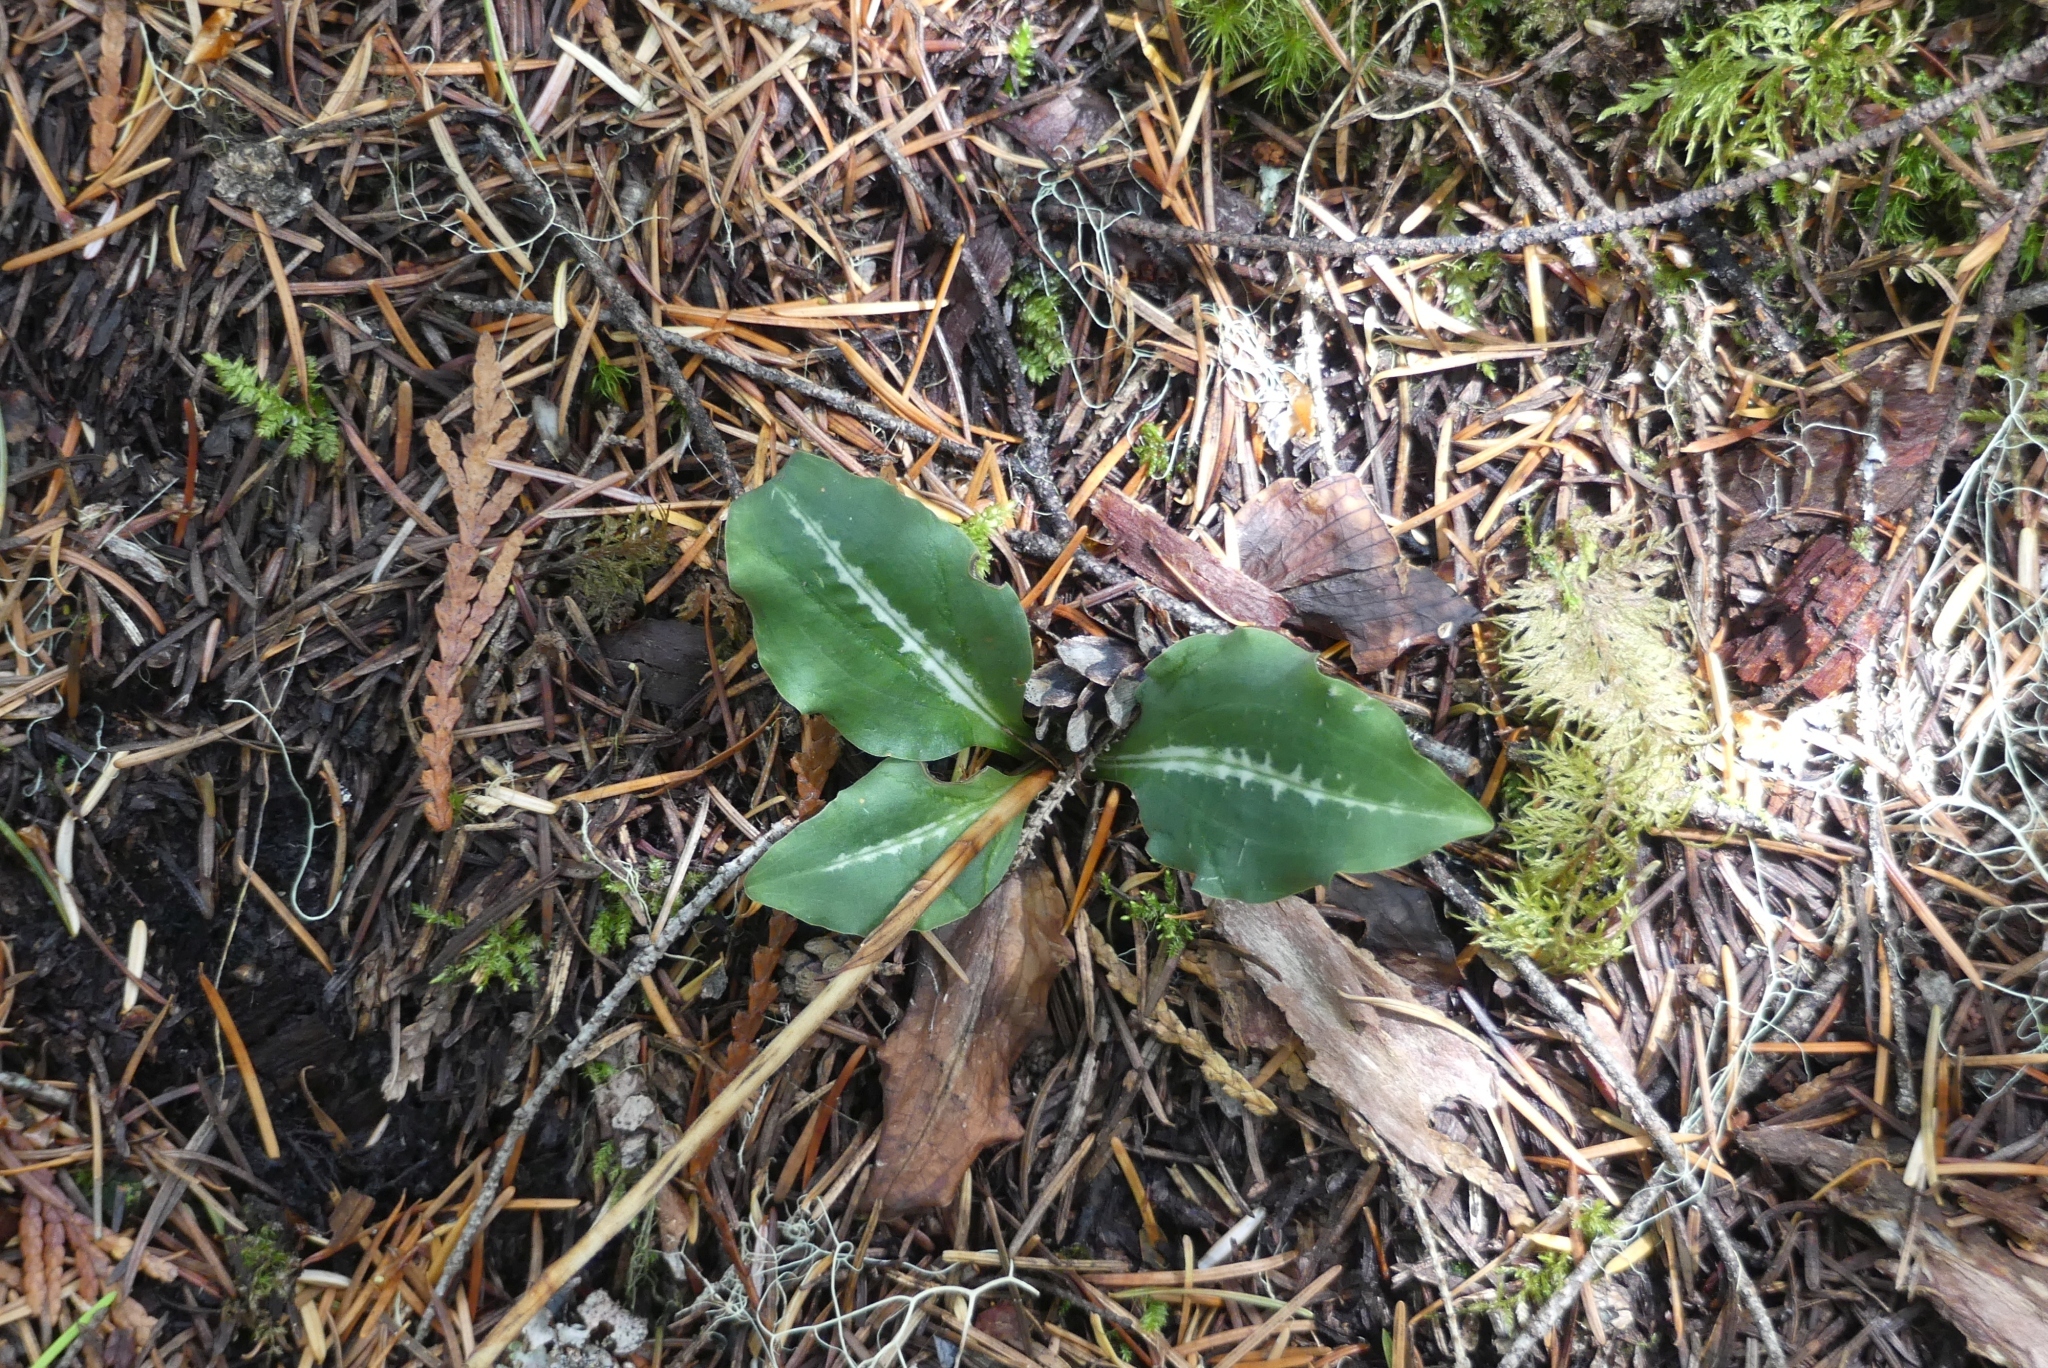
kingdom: Plantae
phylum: Tracheophyta
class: Liliopsida
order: Asparagales
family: Orchidaceae
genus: Goodyera
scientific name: Goodyera oblongifolia
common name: Giant rattlesnake-plantain
